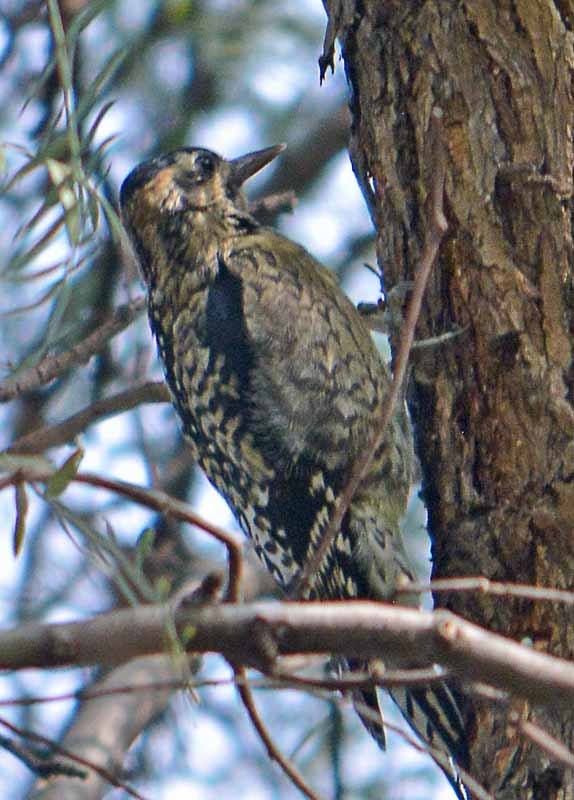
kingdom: Animalia
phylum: Chordata
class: Aves
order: Piciformes
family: Picidae
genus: Sphyrapicus
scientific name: Sphyrapicus varius
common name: Yellow-bellied sapsucker
